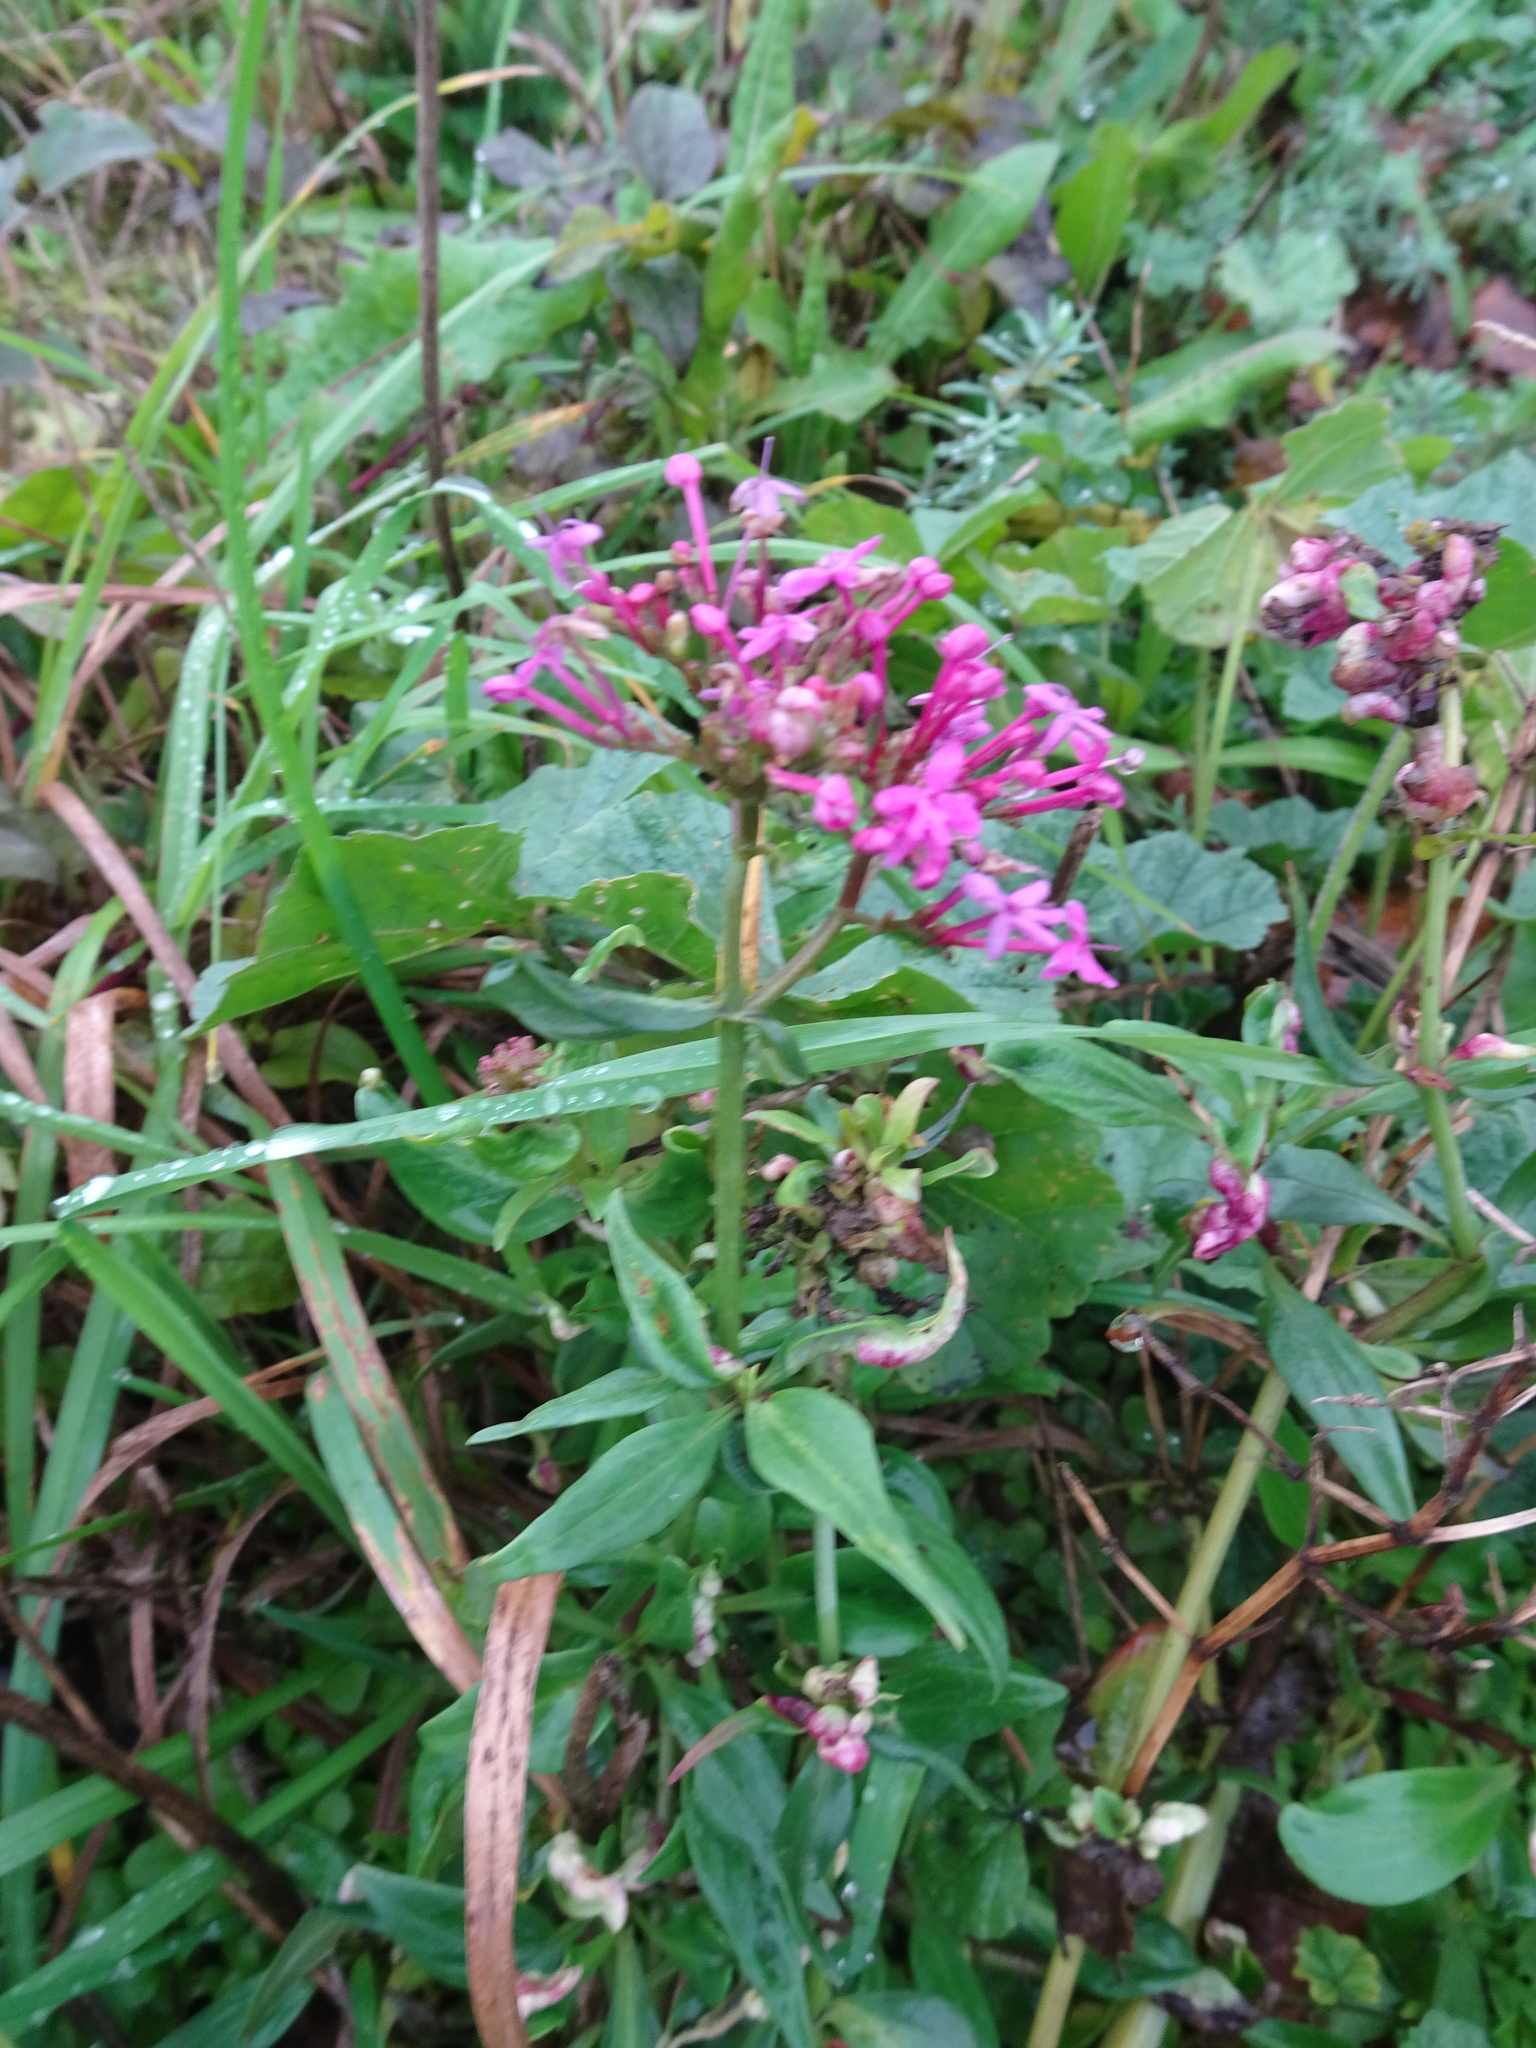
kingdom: Plantae
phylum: Tracheophyta
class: Magnoliopsida
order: Dipsacales
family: Caprifoliaceae
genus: Centranthus
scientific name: Centranthus ruber
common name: Red valerian
